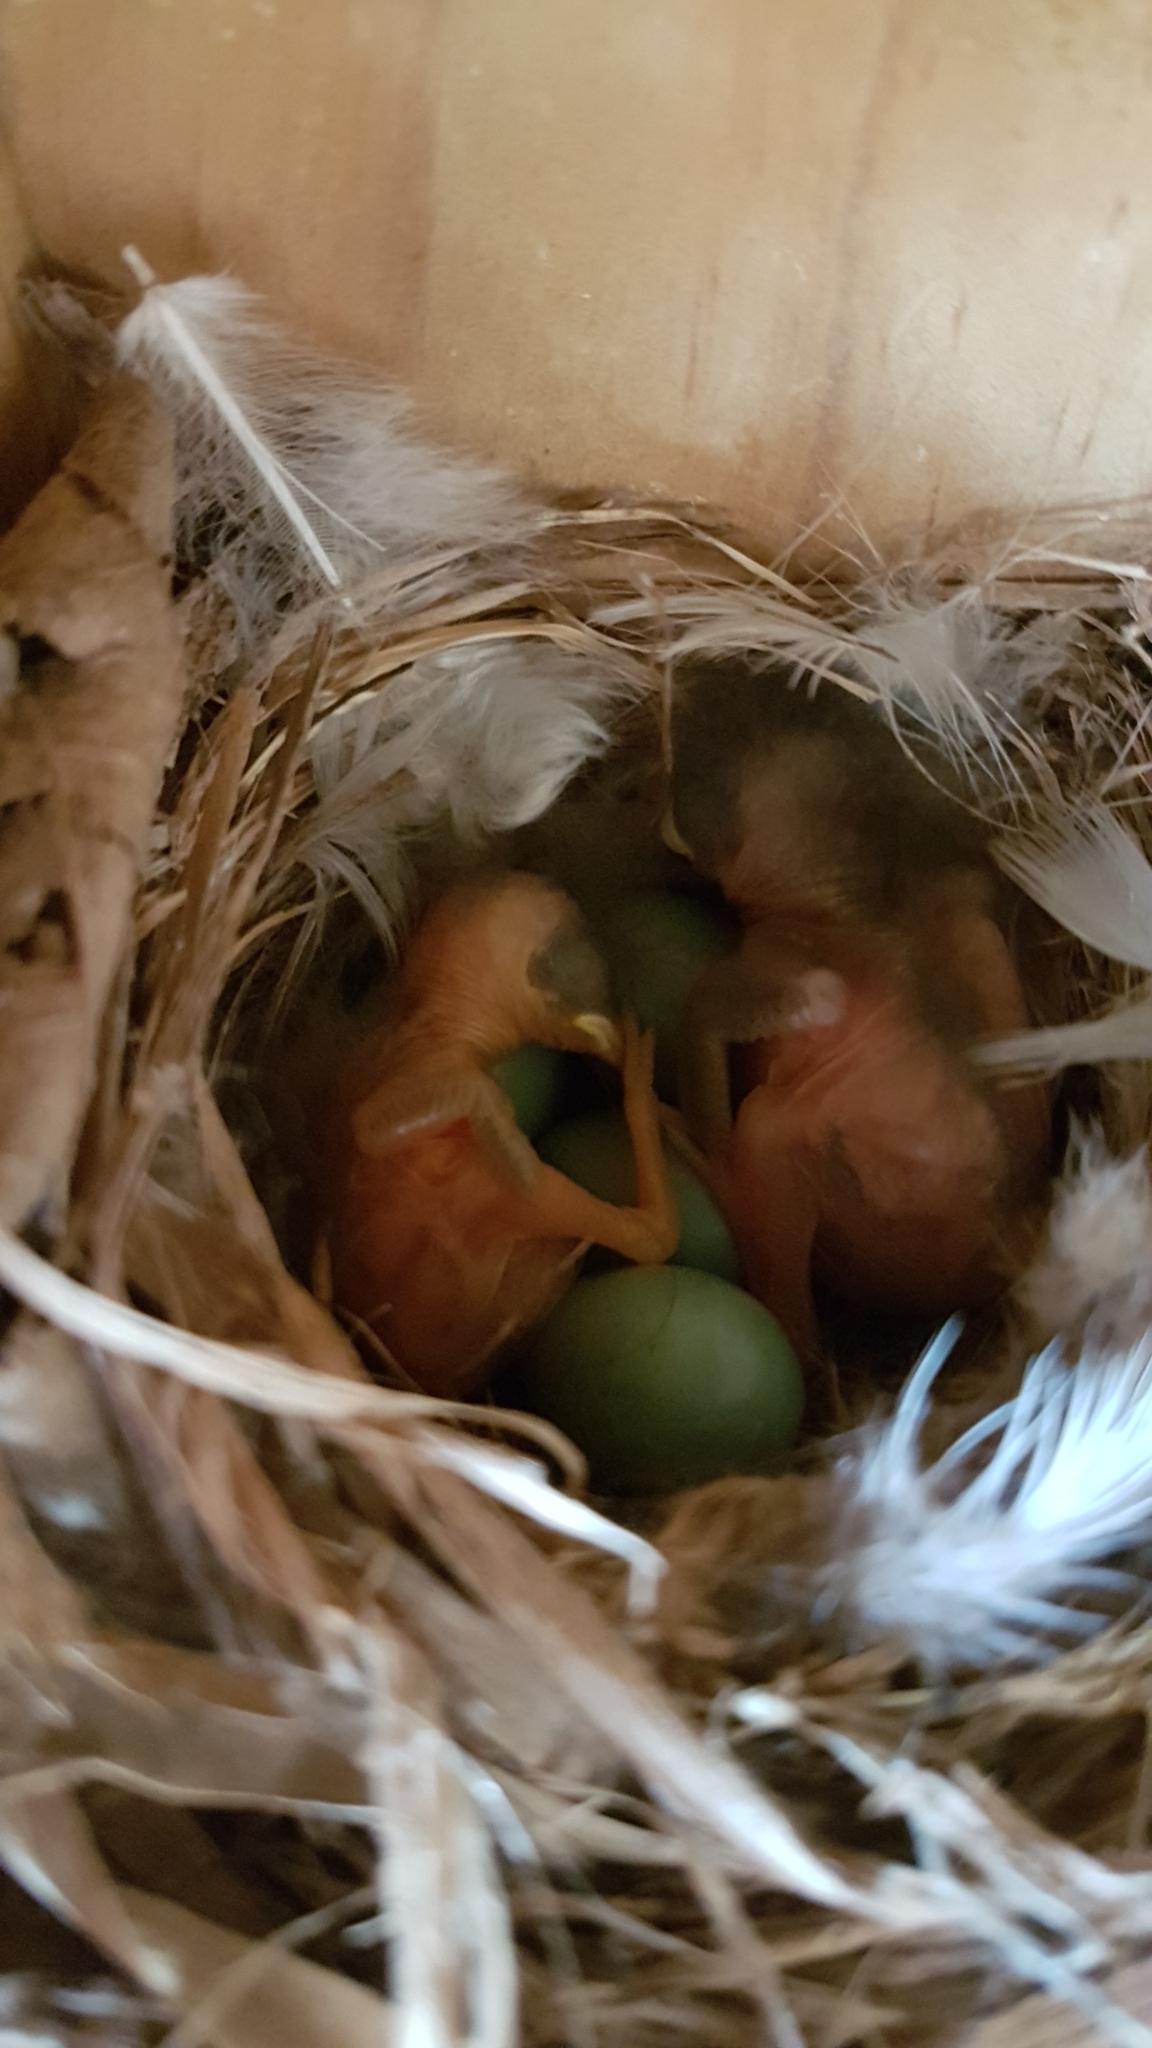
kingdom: Animalia
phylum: Chordata
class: Aves
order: Passeriformes
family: Muscicapidae
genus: Phoenicurus
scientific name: Phoenicurus phoenicurus
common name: Common redstart
